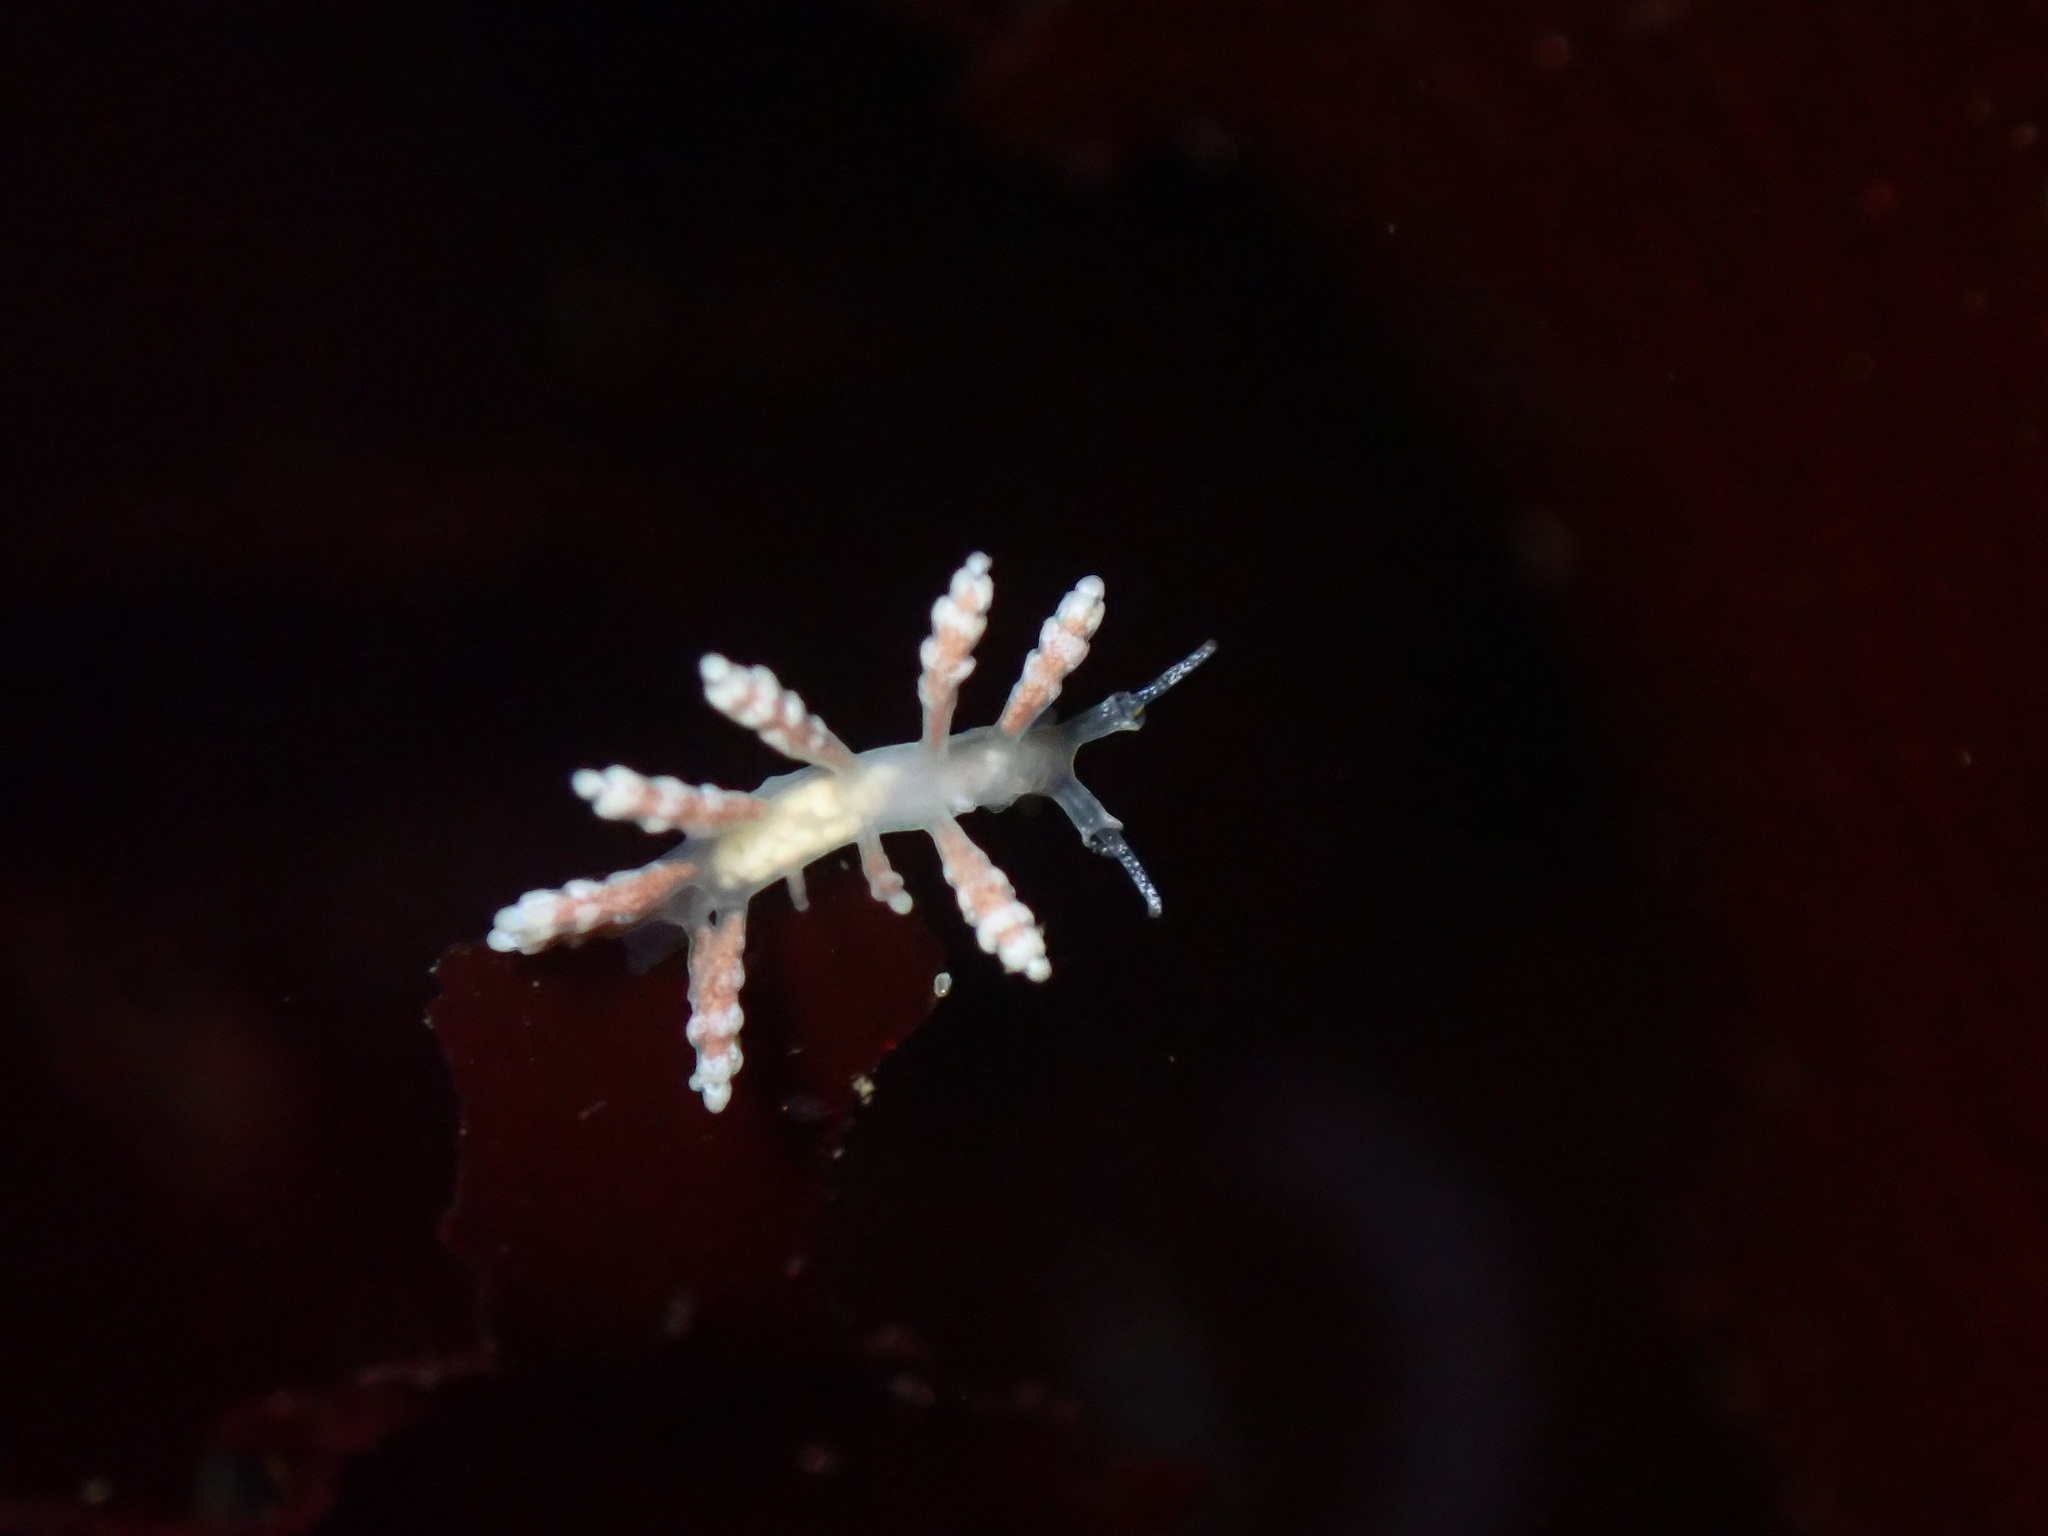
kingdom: Animalia
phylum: Mollusca
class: Gastropoda
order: Nudibranchia
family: Dotidae
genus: Doto
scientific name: Doto amyra
